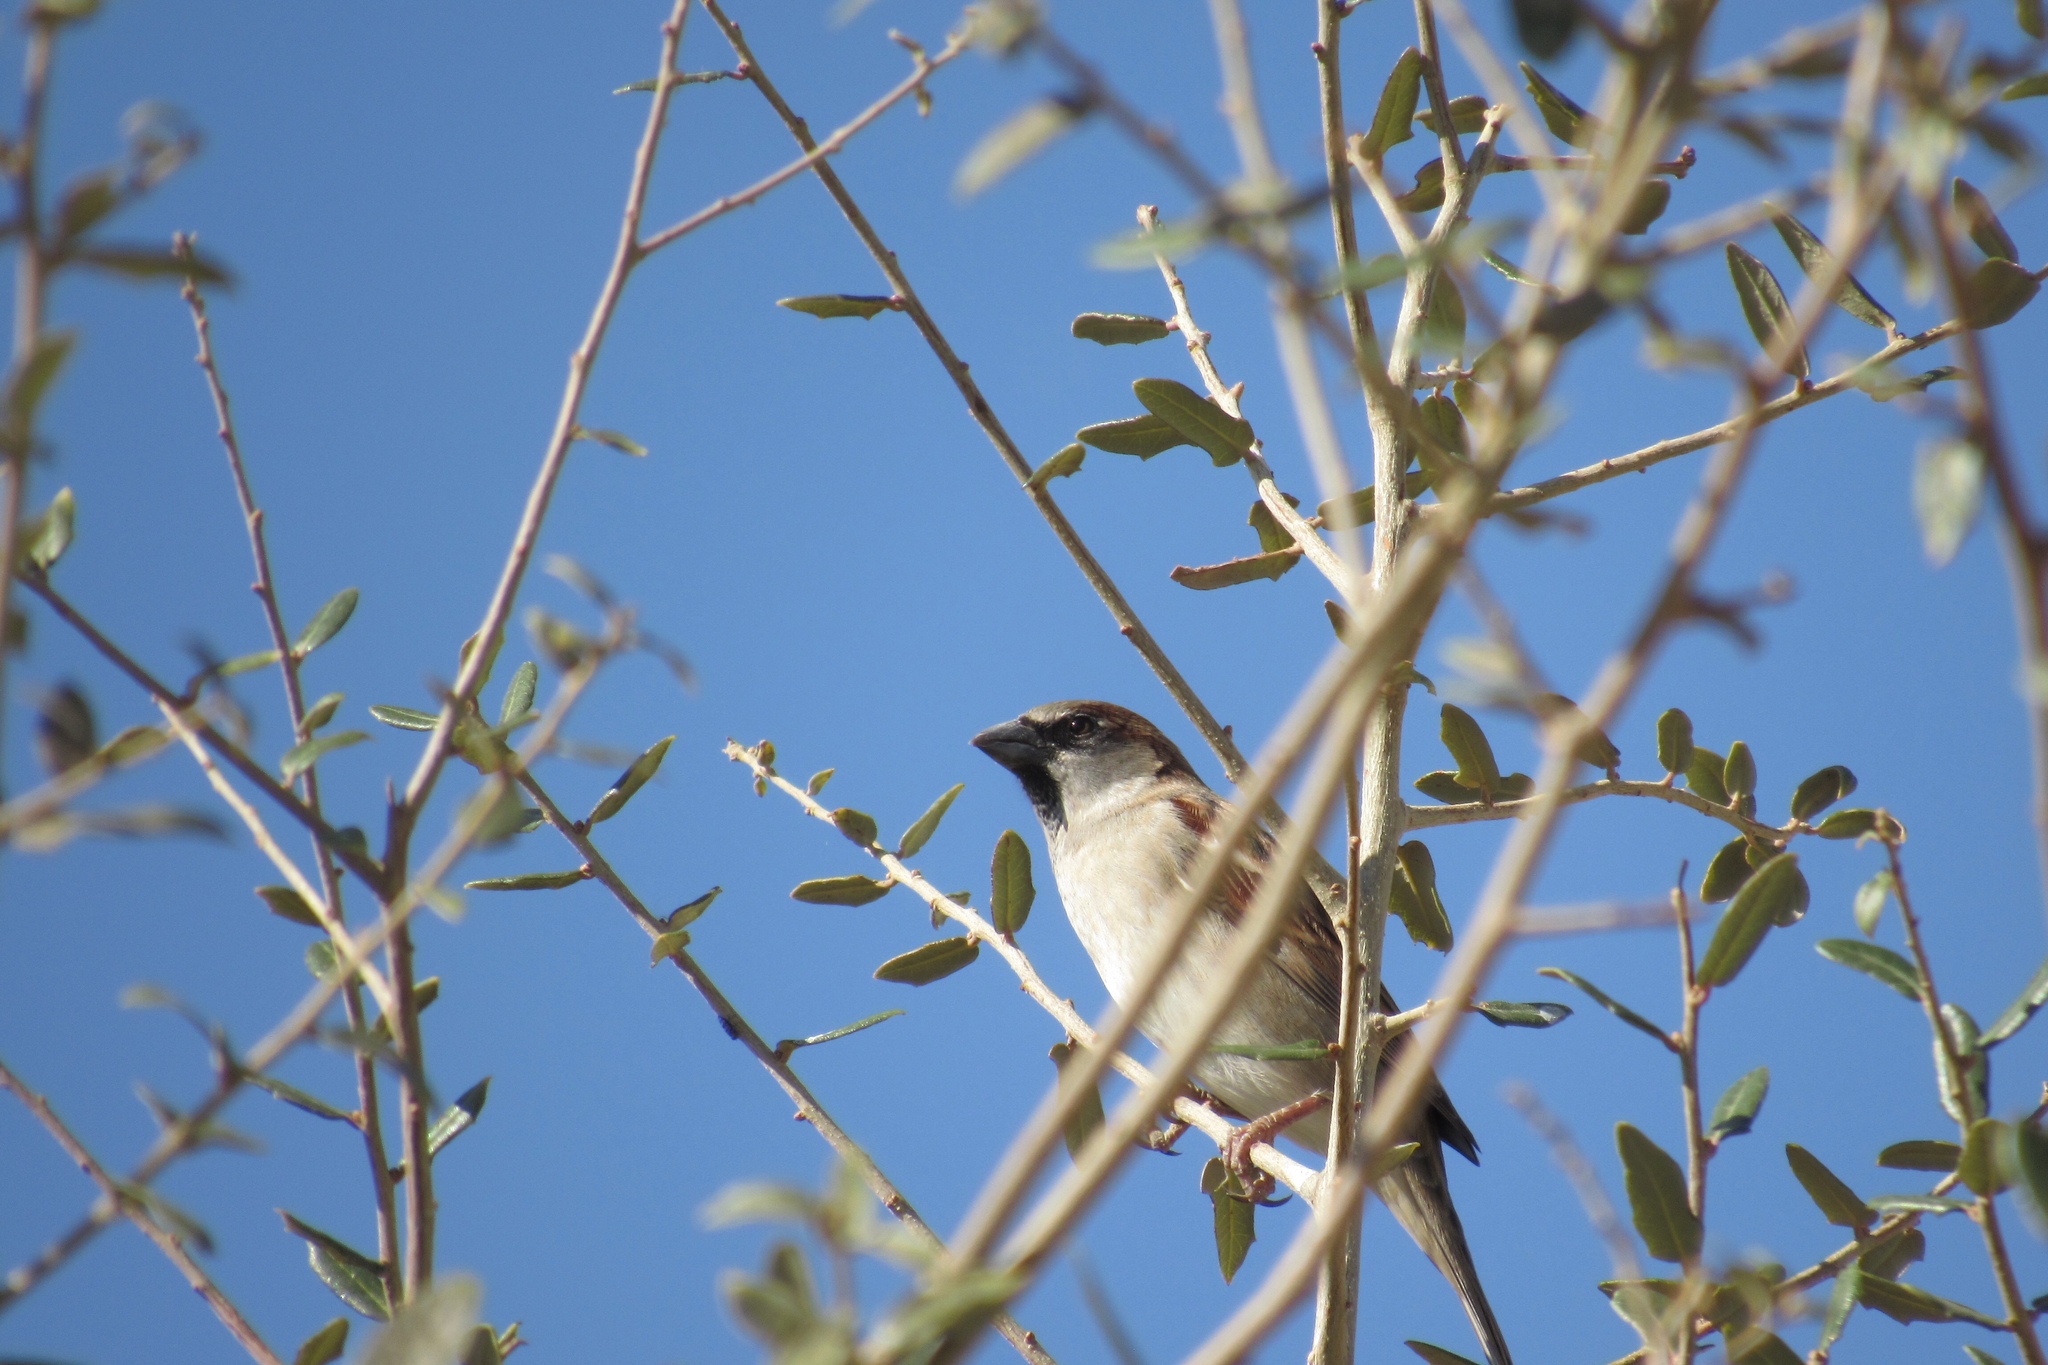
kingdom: Animalia
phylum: Chordata
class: Aves
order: Passeriformes
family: Passeridae
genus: Passer
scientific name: Passer domesticus
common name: House sparrow
